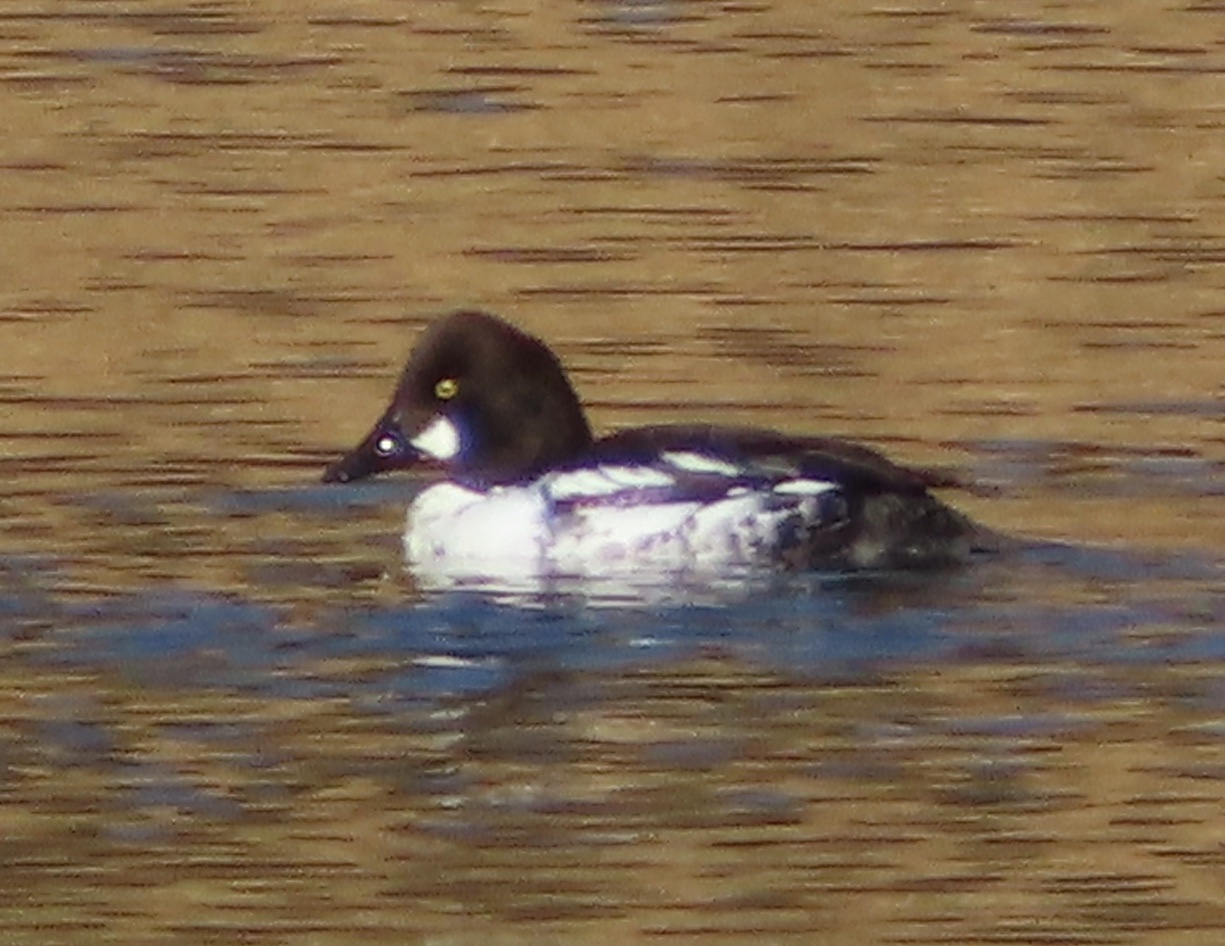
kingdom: Animalia
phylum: Chordata
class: Aves
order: Anseriformes
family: Anatidae
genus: Bucephala
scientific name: Bucephala clangula
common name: Common goldeneye
